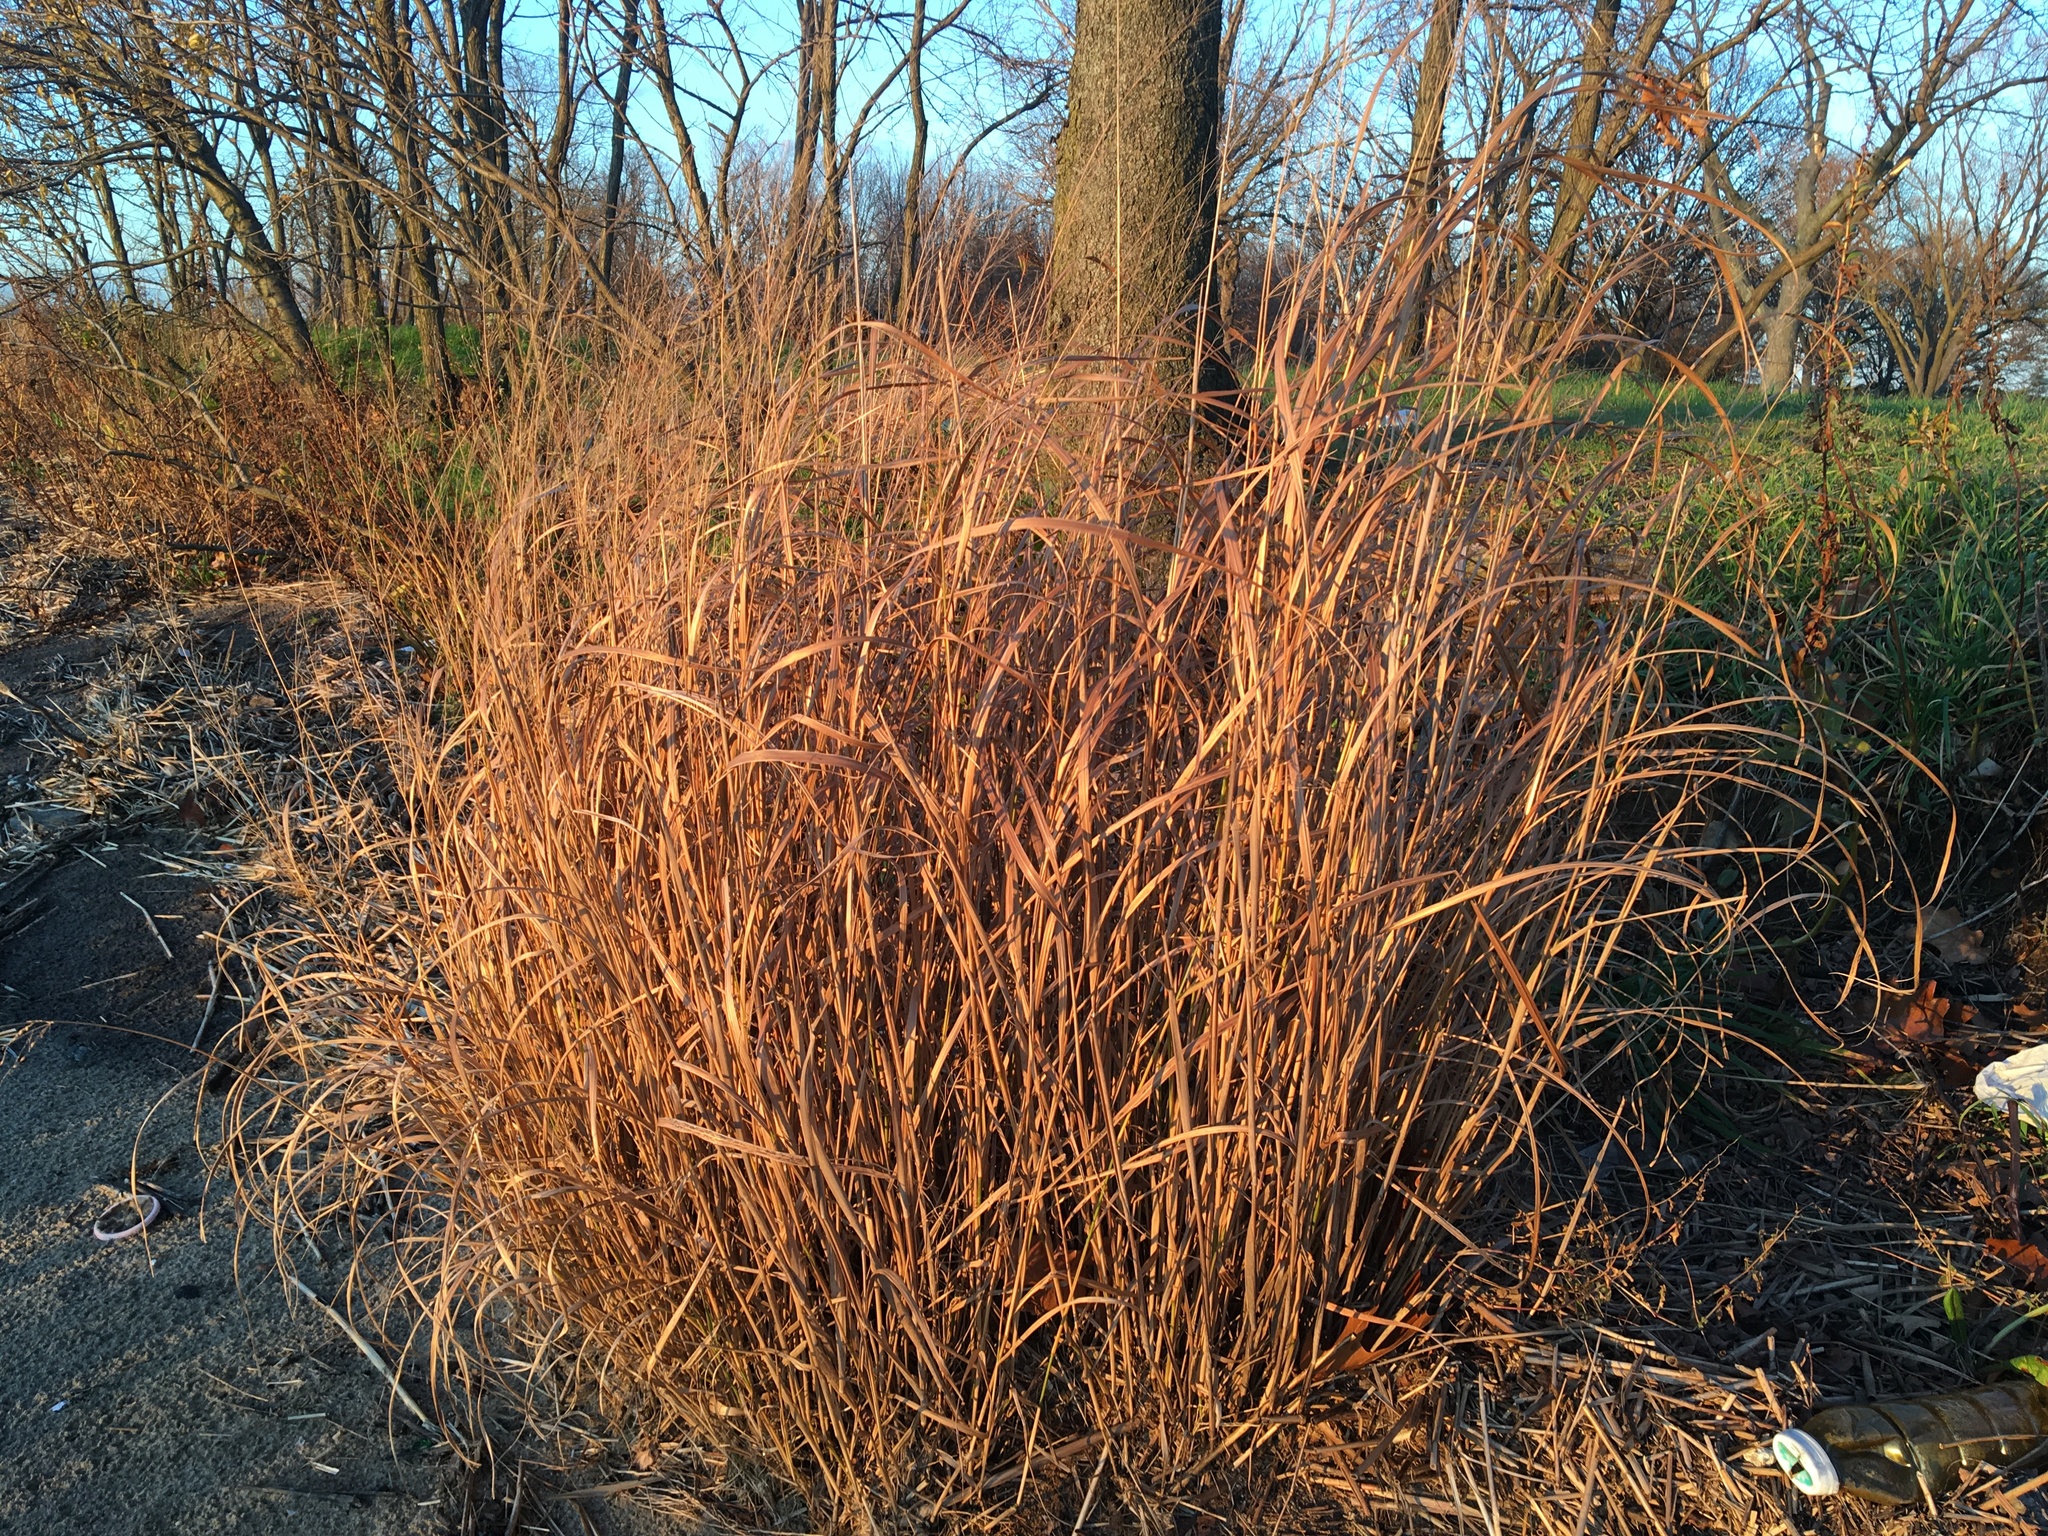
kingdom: Plantae
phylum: Tracheophyta
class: Liliopsida
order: Poales
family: Poaceae
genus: Panicum
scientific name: Panicum virgatum
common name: Switchgrass
